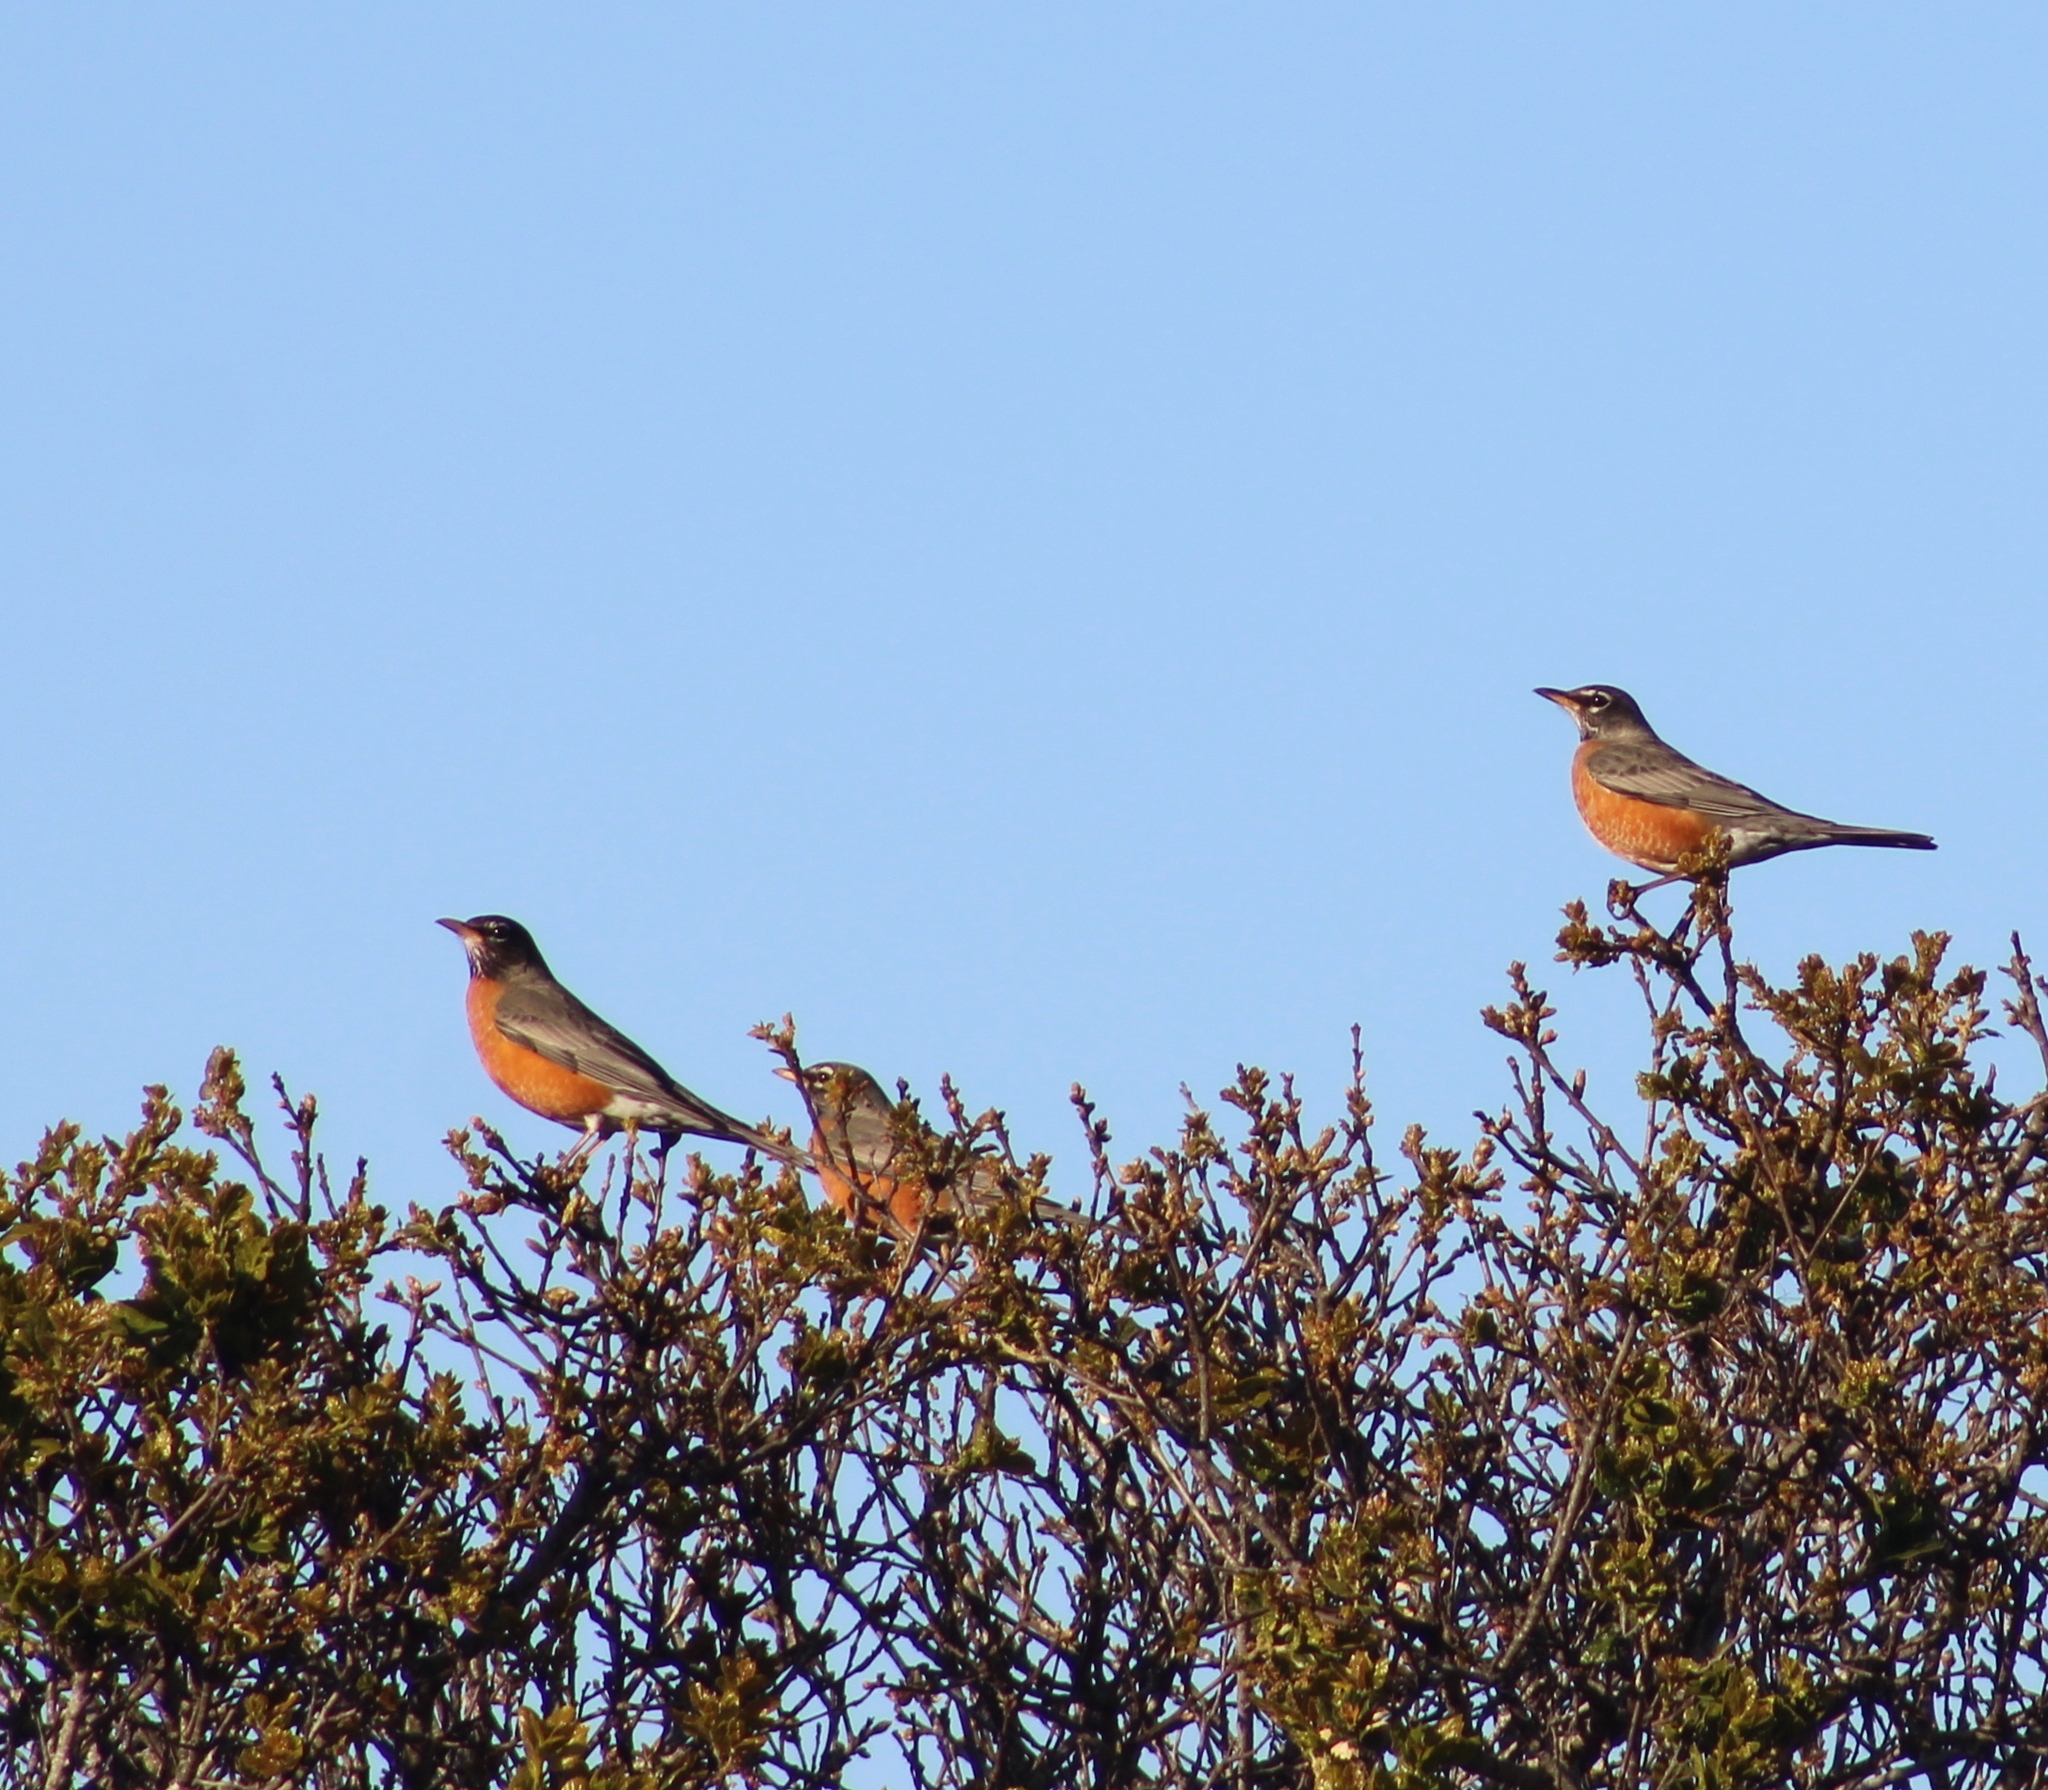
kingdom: Animalia
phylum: Chordata
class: Aves
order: Passeriformes
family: Turdidae
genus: Turdus
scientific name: Turdus migratorius
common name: American robin
